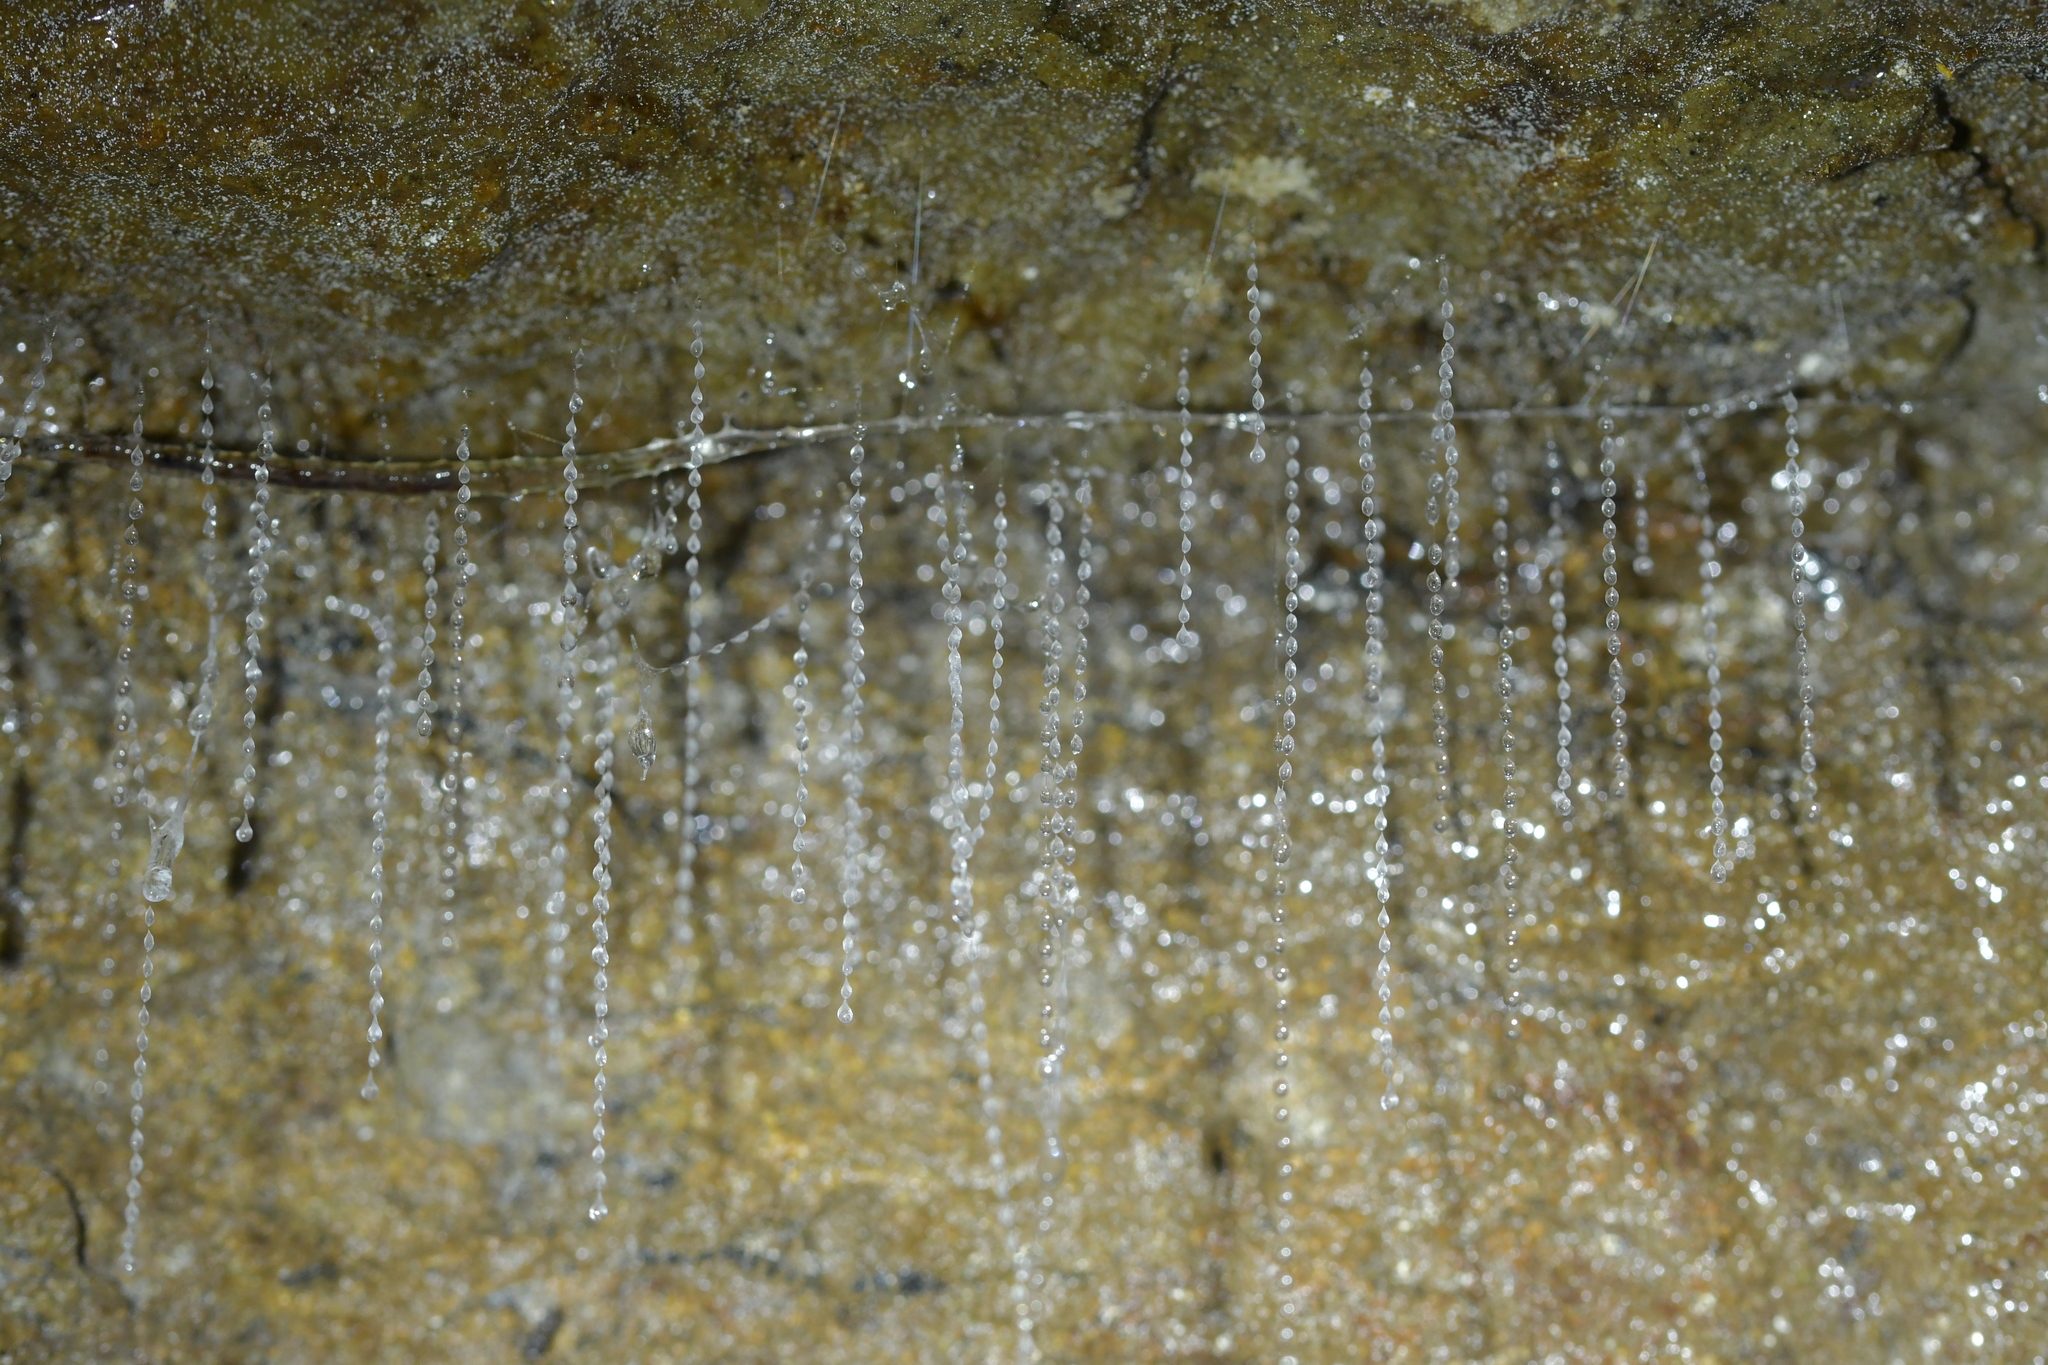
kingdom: Animalia
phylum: Arthropoda
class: Insecta
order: Diptera
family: Keroplatidae
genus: Arachnocampa
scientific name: Arachnocampa luminosa
